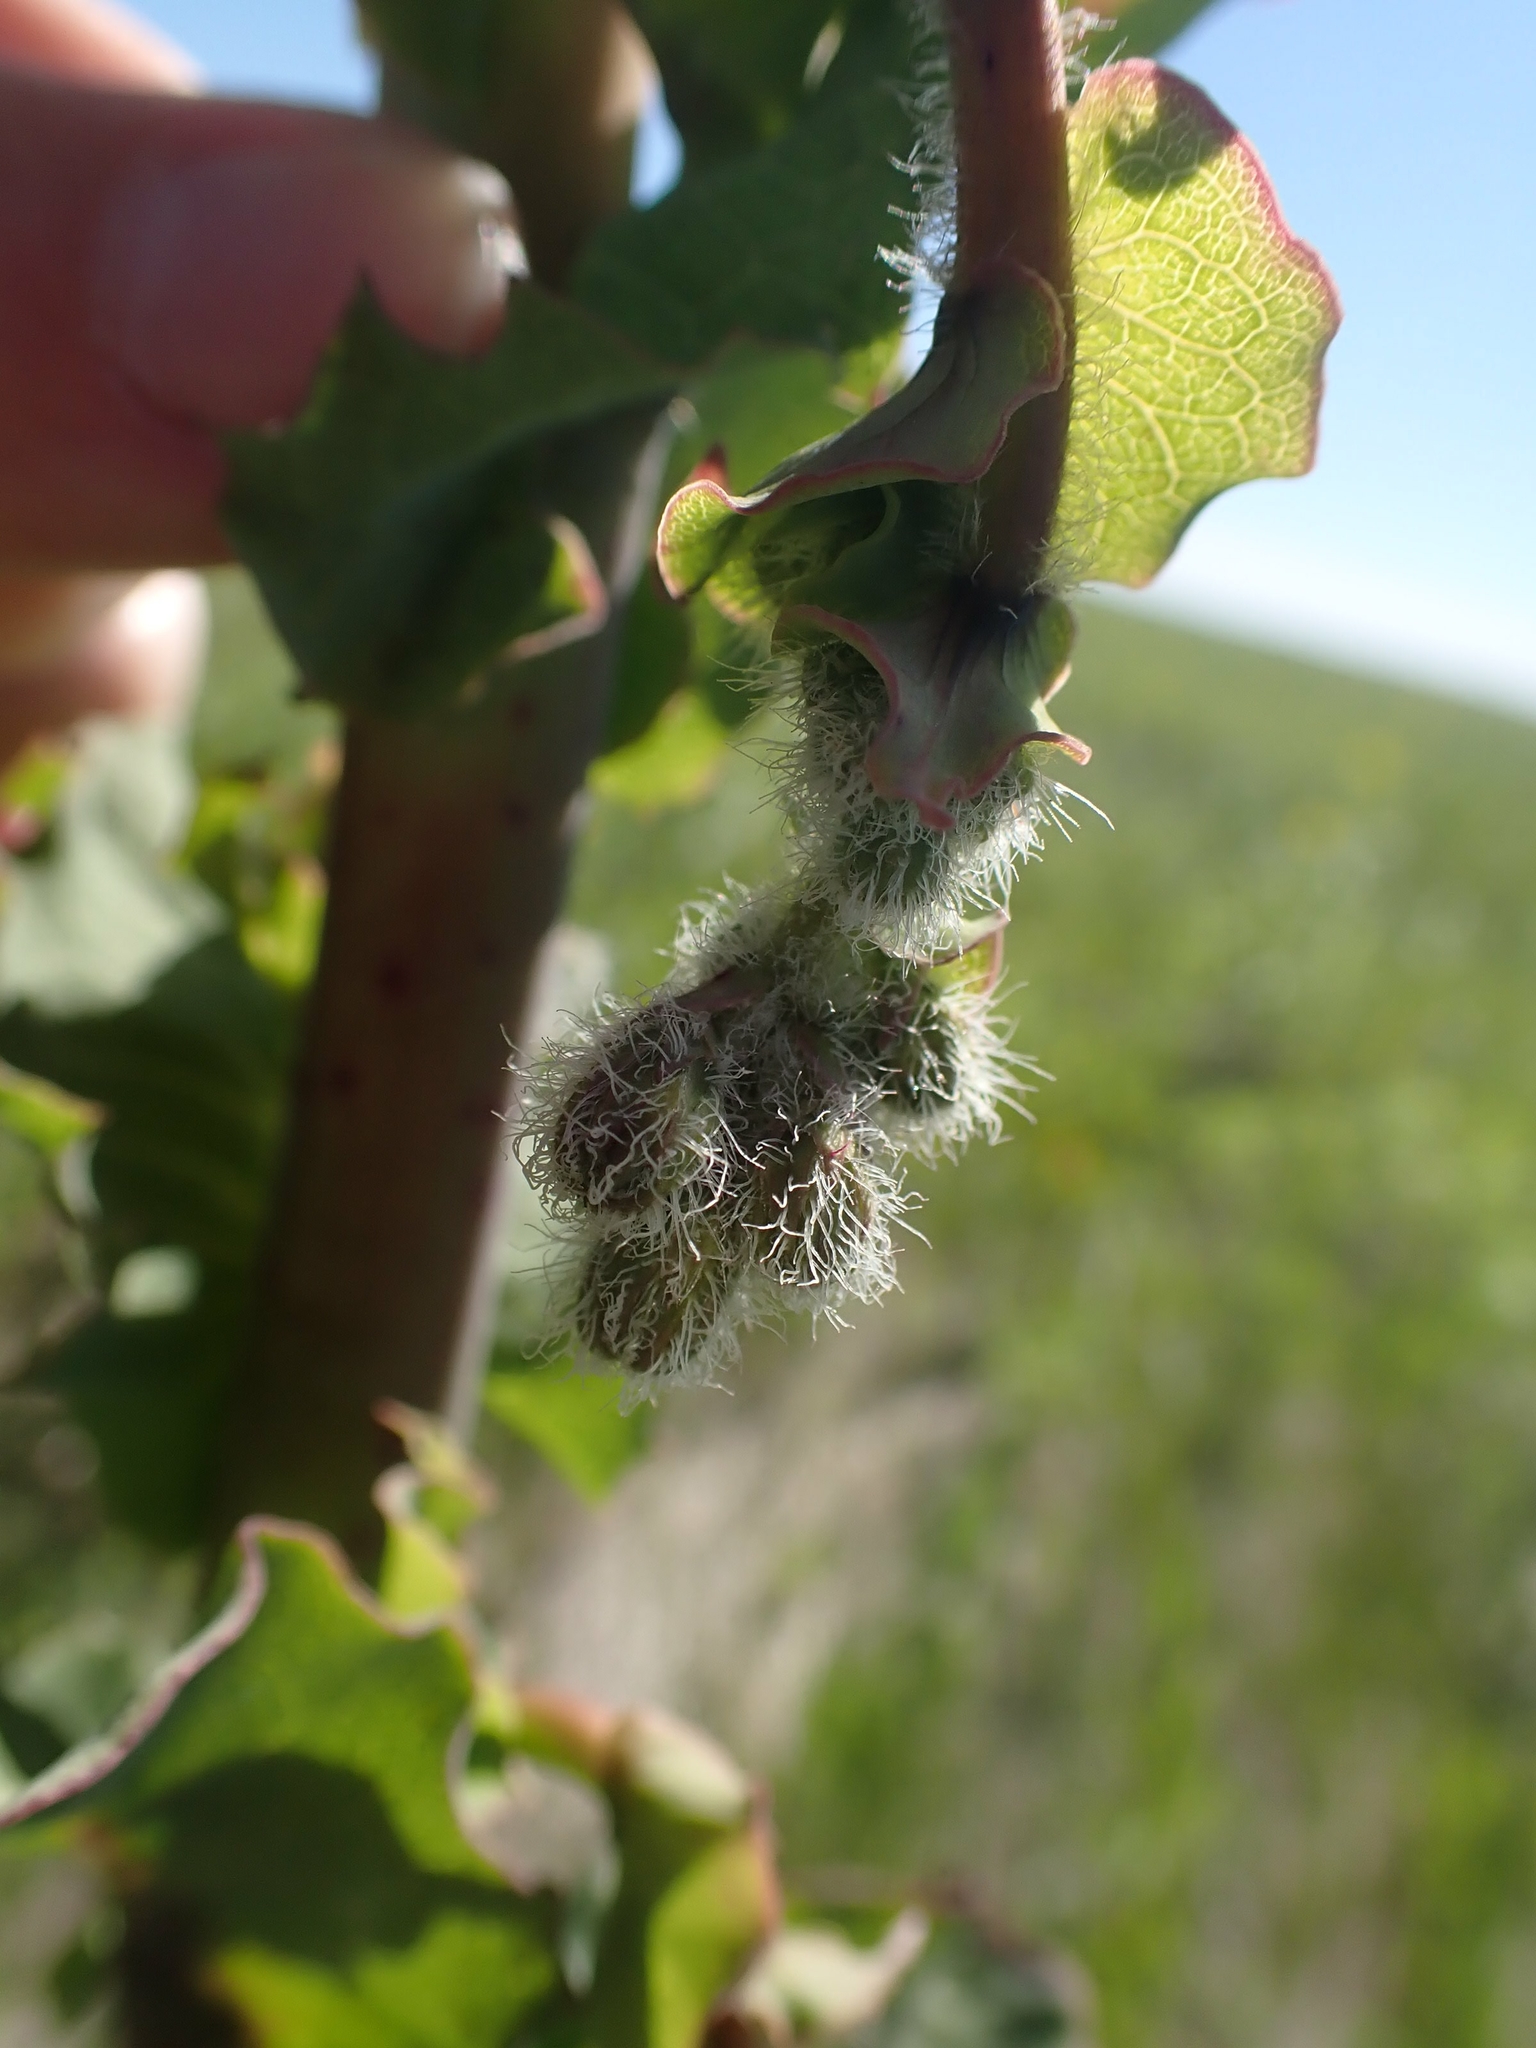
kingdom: Plantae
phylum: Tracheophyta
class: Magnoliopsida
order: Asterales
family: Asteraceae
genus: Nabalus
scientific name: Nabalus racemosus
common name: Glaucous white lettuce
